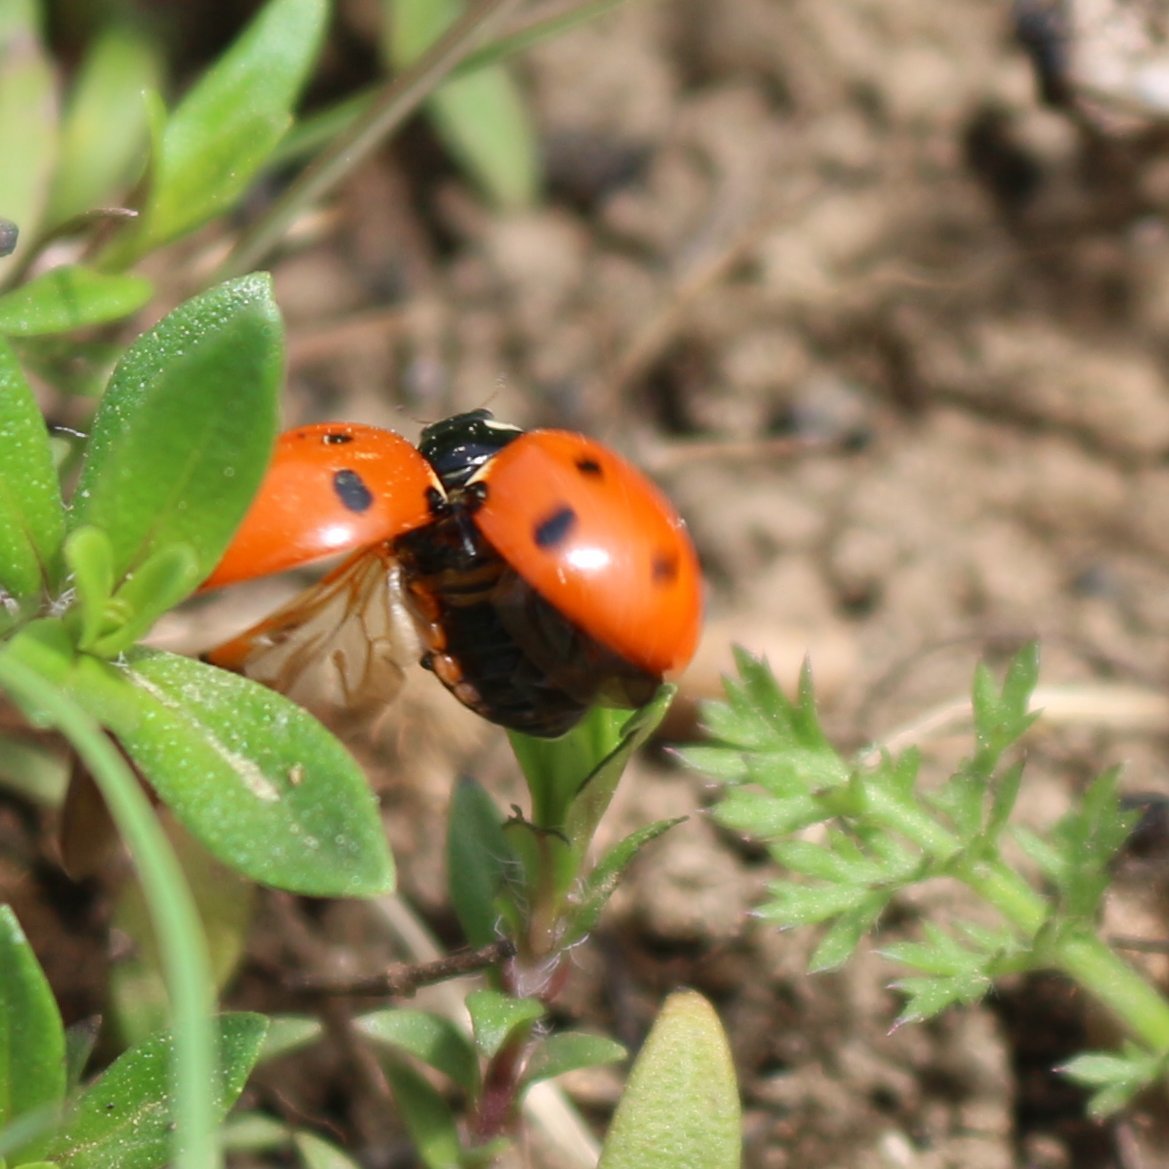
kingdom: Animalia
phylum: Arthropoda
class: Insecta
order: Coleoptera
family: Coccinellidae
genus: Coccinella
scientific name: Coccinella septempunctata
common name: Sevenspotted lady beetle
